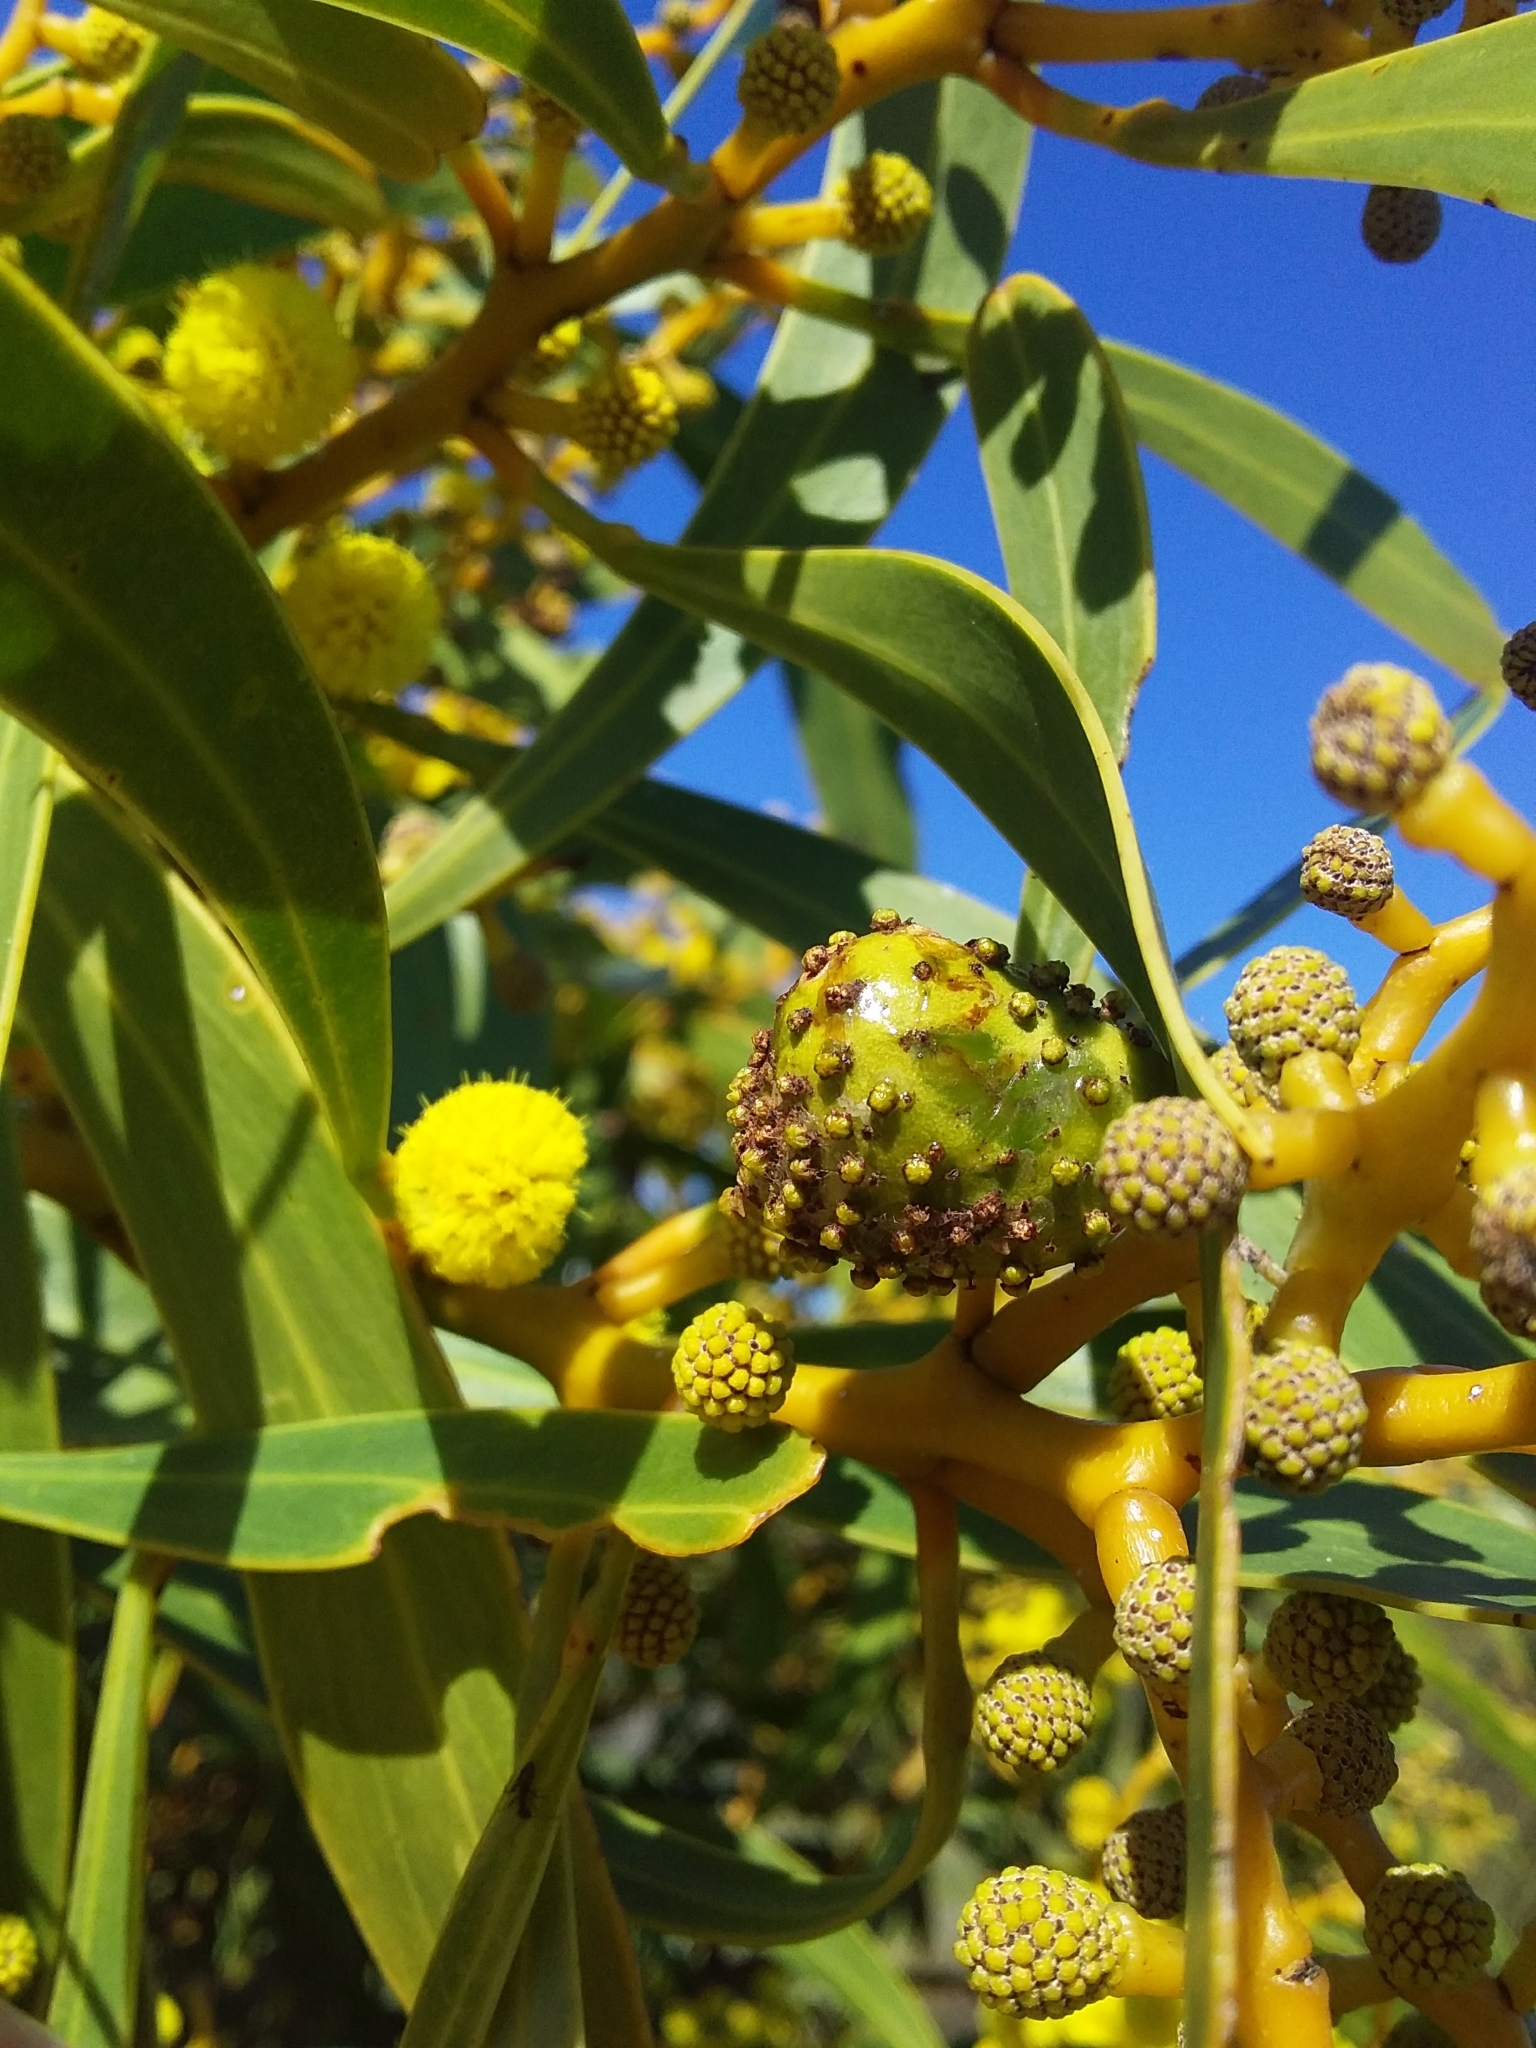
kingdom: Animalia
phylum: Arthropoda
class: Insecta
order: Hymenoptera
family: Pteromalidae
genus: Trichilogaster
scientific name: Trichilogaster signiventris
